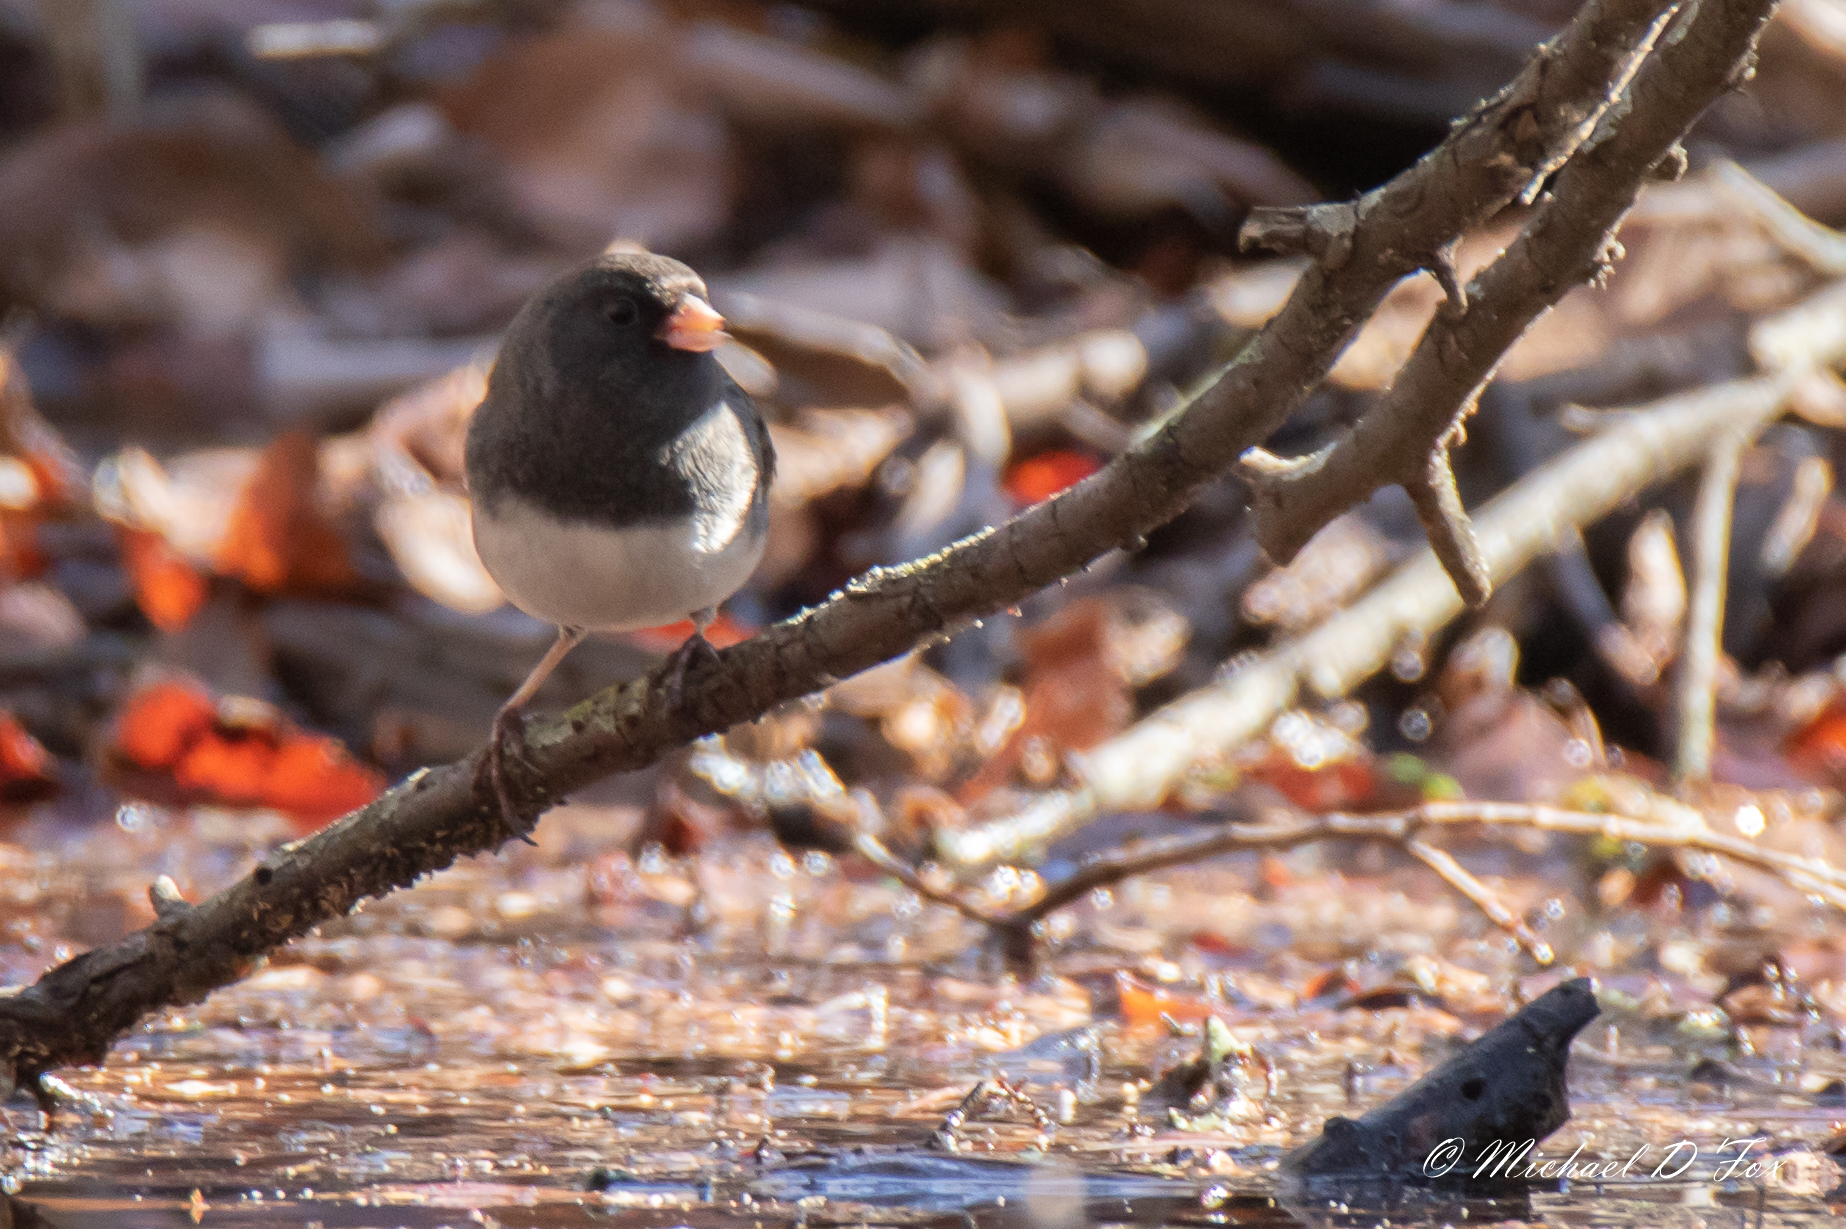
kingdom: Animalia
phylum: Chordata
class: Aves
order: Passeriformes
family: Passerellidae
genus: Junco
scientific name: Junco hyemalis
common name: Dark-eyed junco
